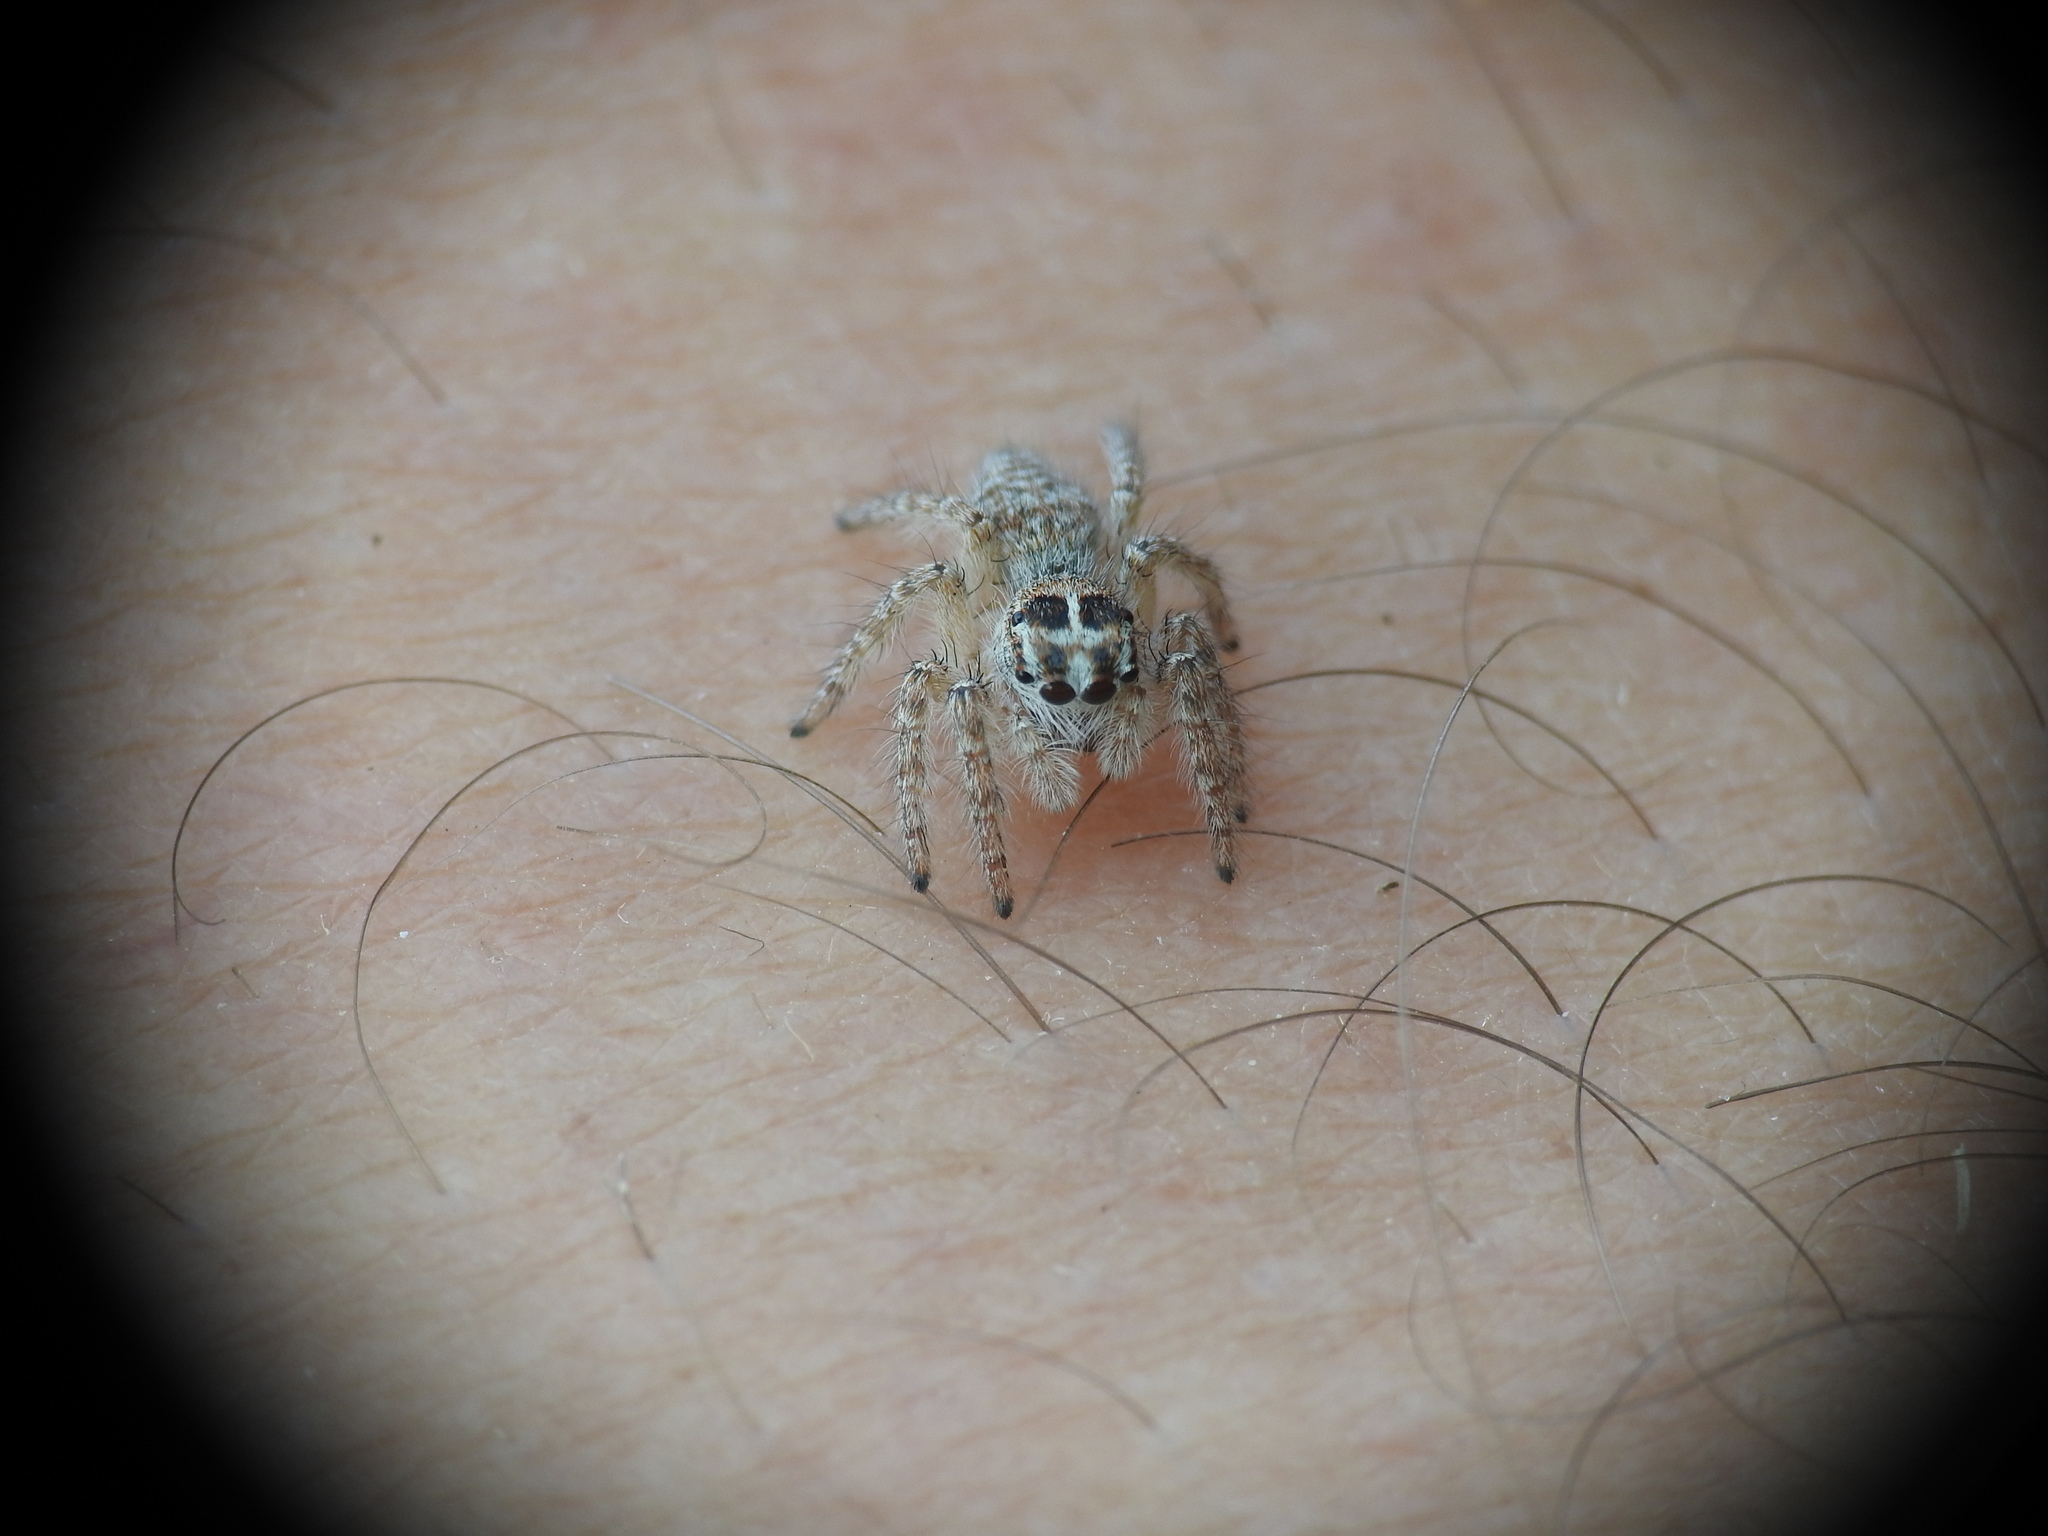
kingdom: Animalia
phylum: Arthropoda
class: Arachnida
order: Araneae
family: Salticidae
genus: Philaeus
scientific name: Philaeus chrysops
